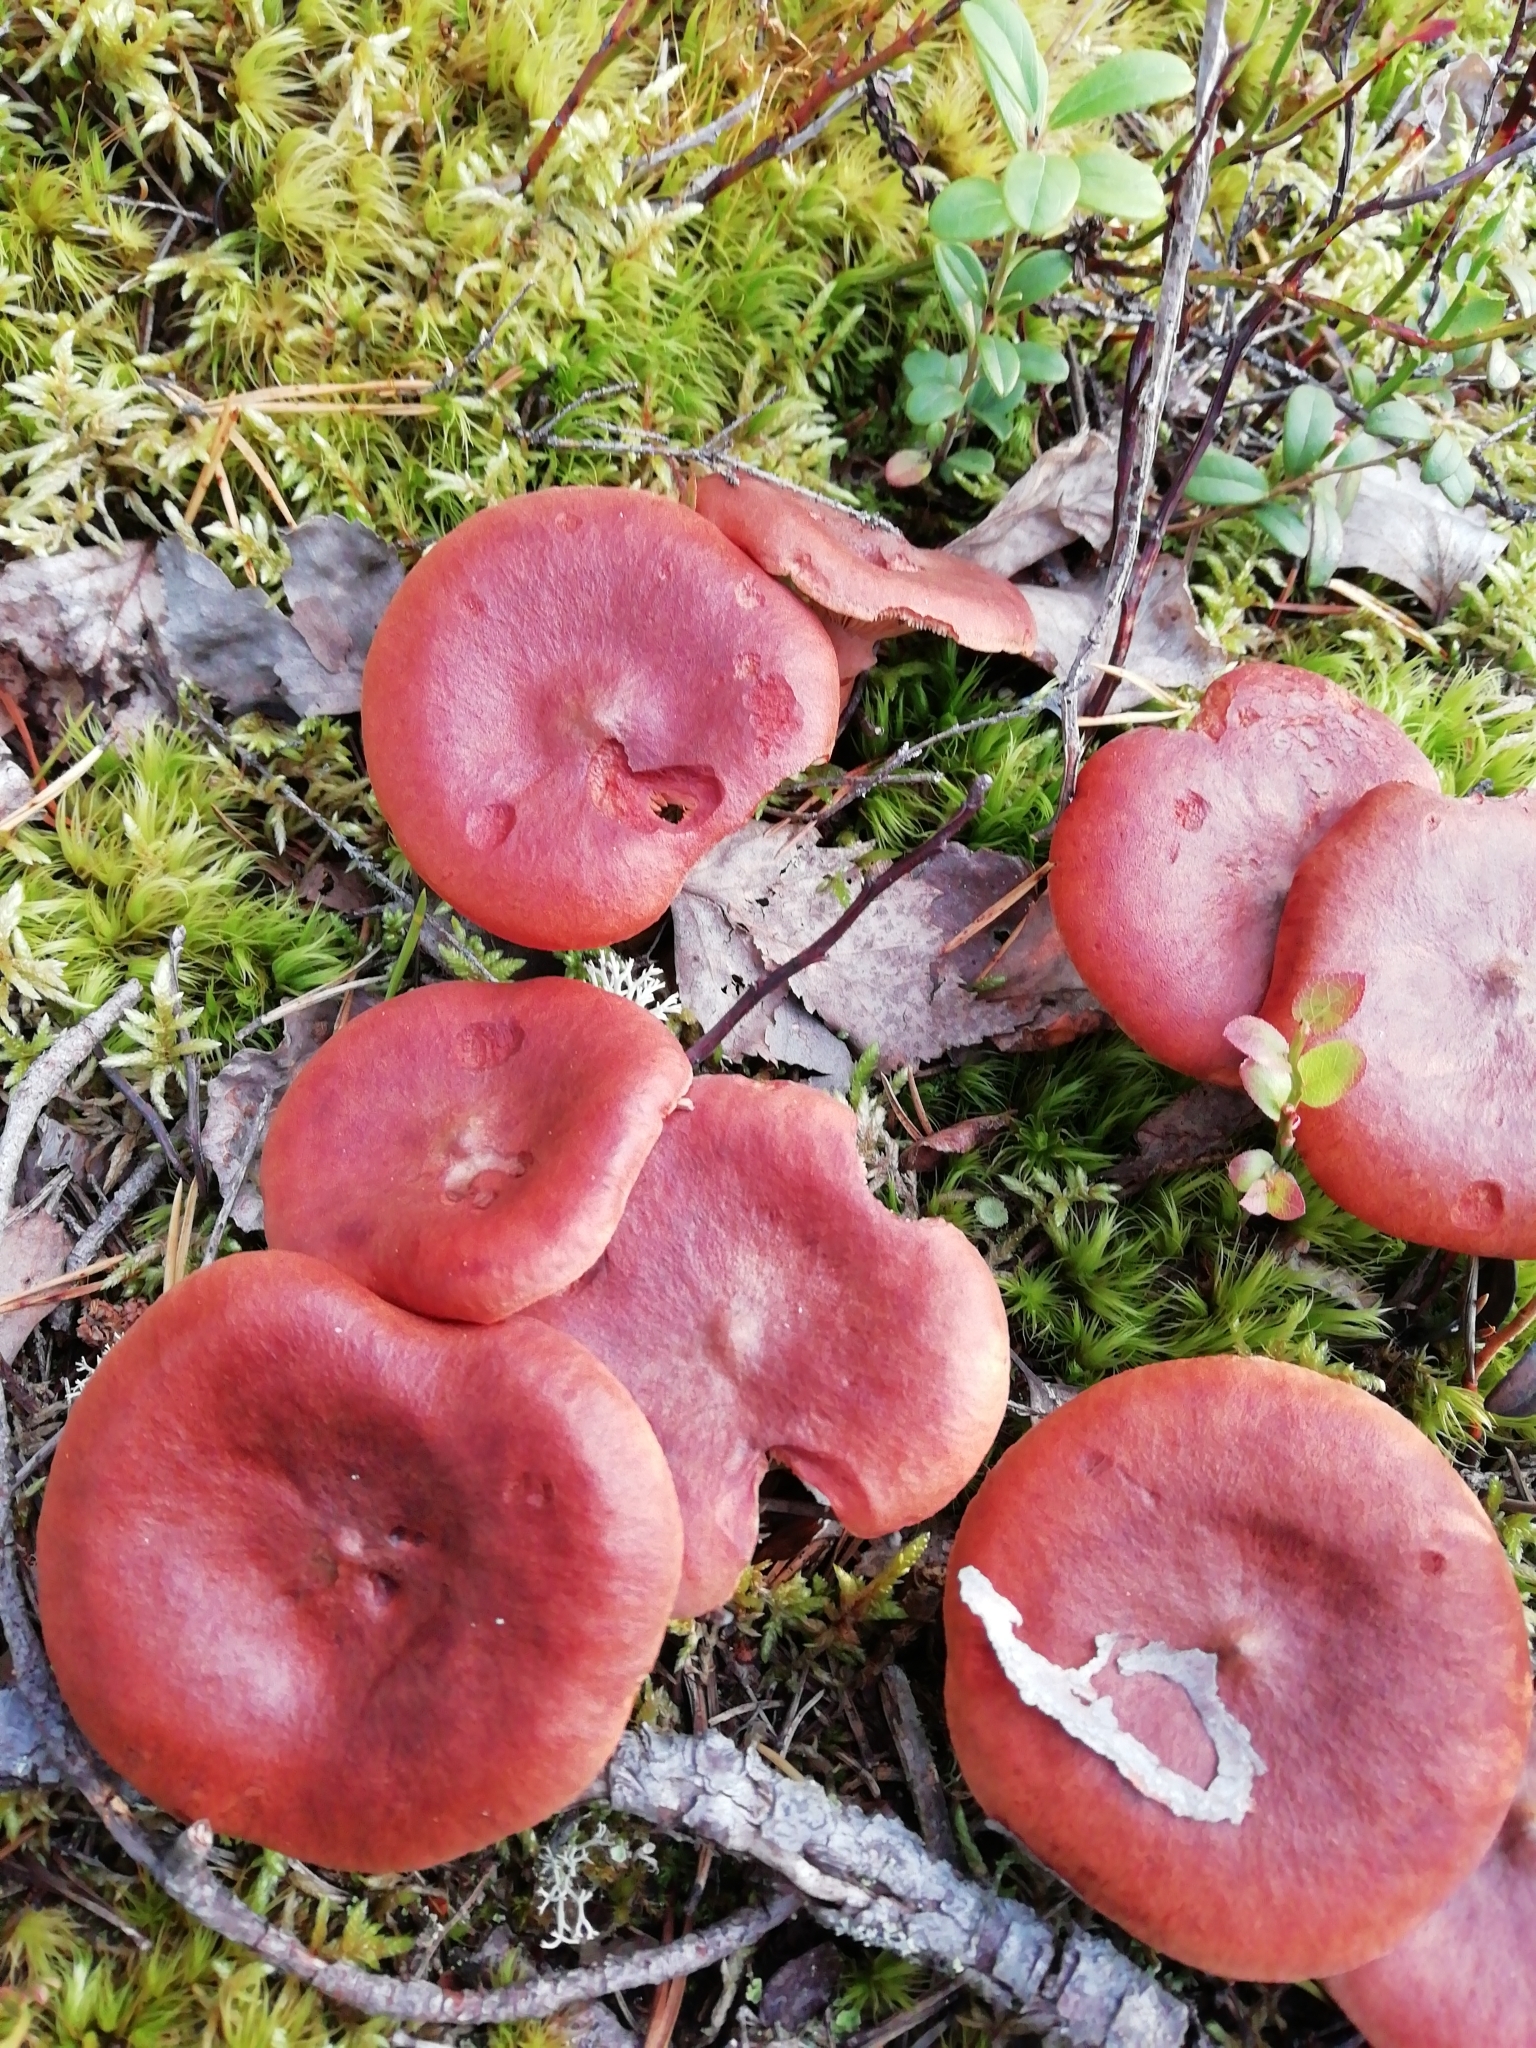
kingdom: Fungi
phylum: Basidiomycota
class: Agaricomycetes
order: Russulales
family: Russulaceae
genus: Lactarius
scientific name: Lactarius rufus
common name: Rufous milk-cap
